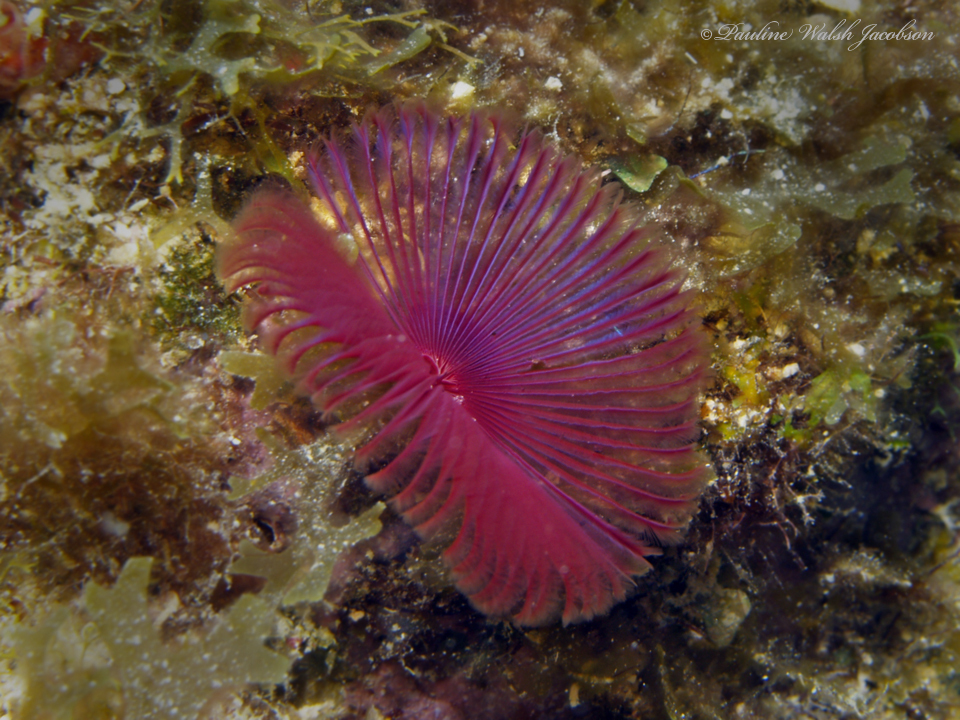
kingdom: Animalia
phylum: Annelida
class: Polychaeta
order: Sabellida
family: Sabellidae
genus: Anamobaea
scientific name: Anamobaea orstedii
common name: Split-crown feather duster
